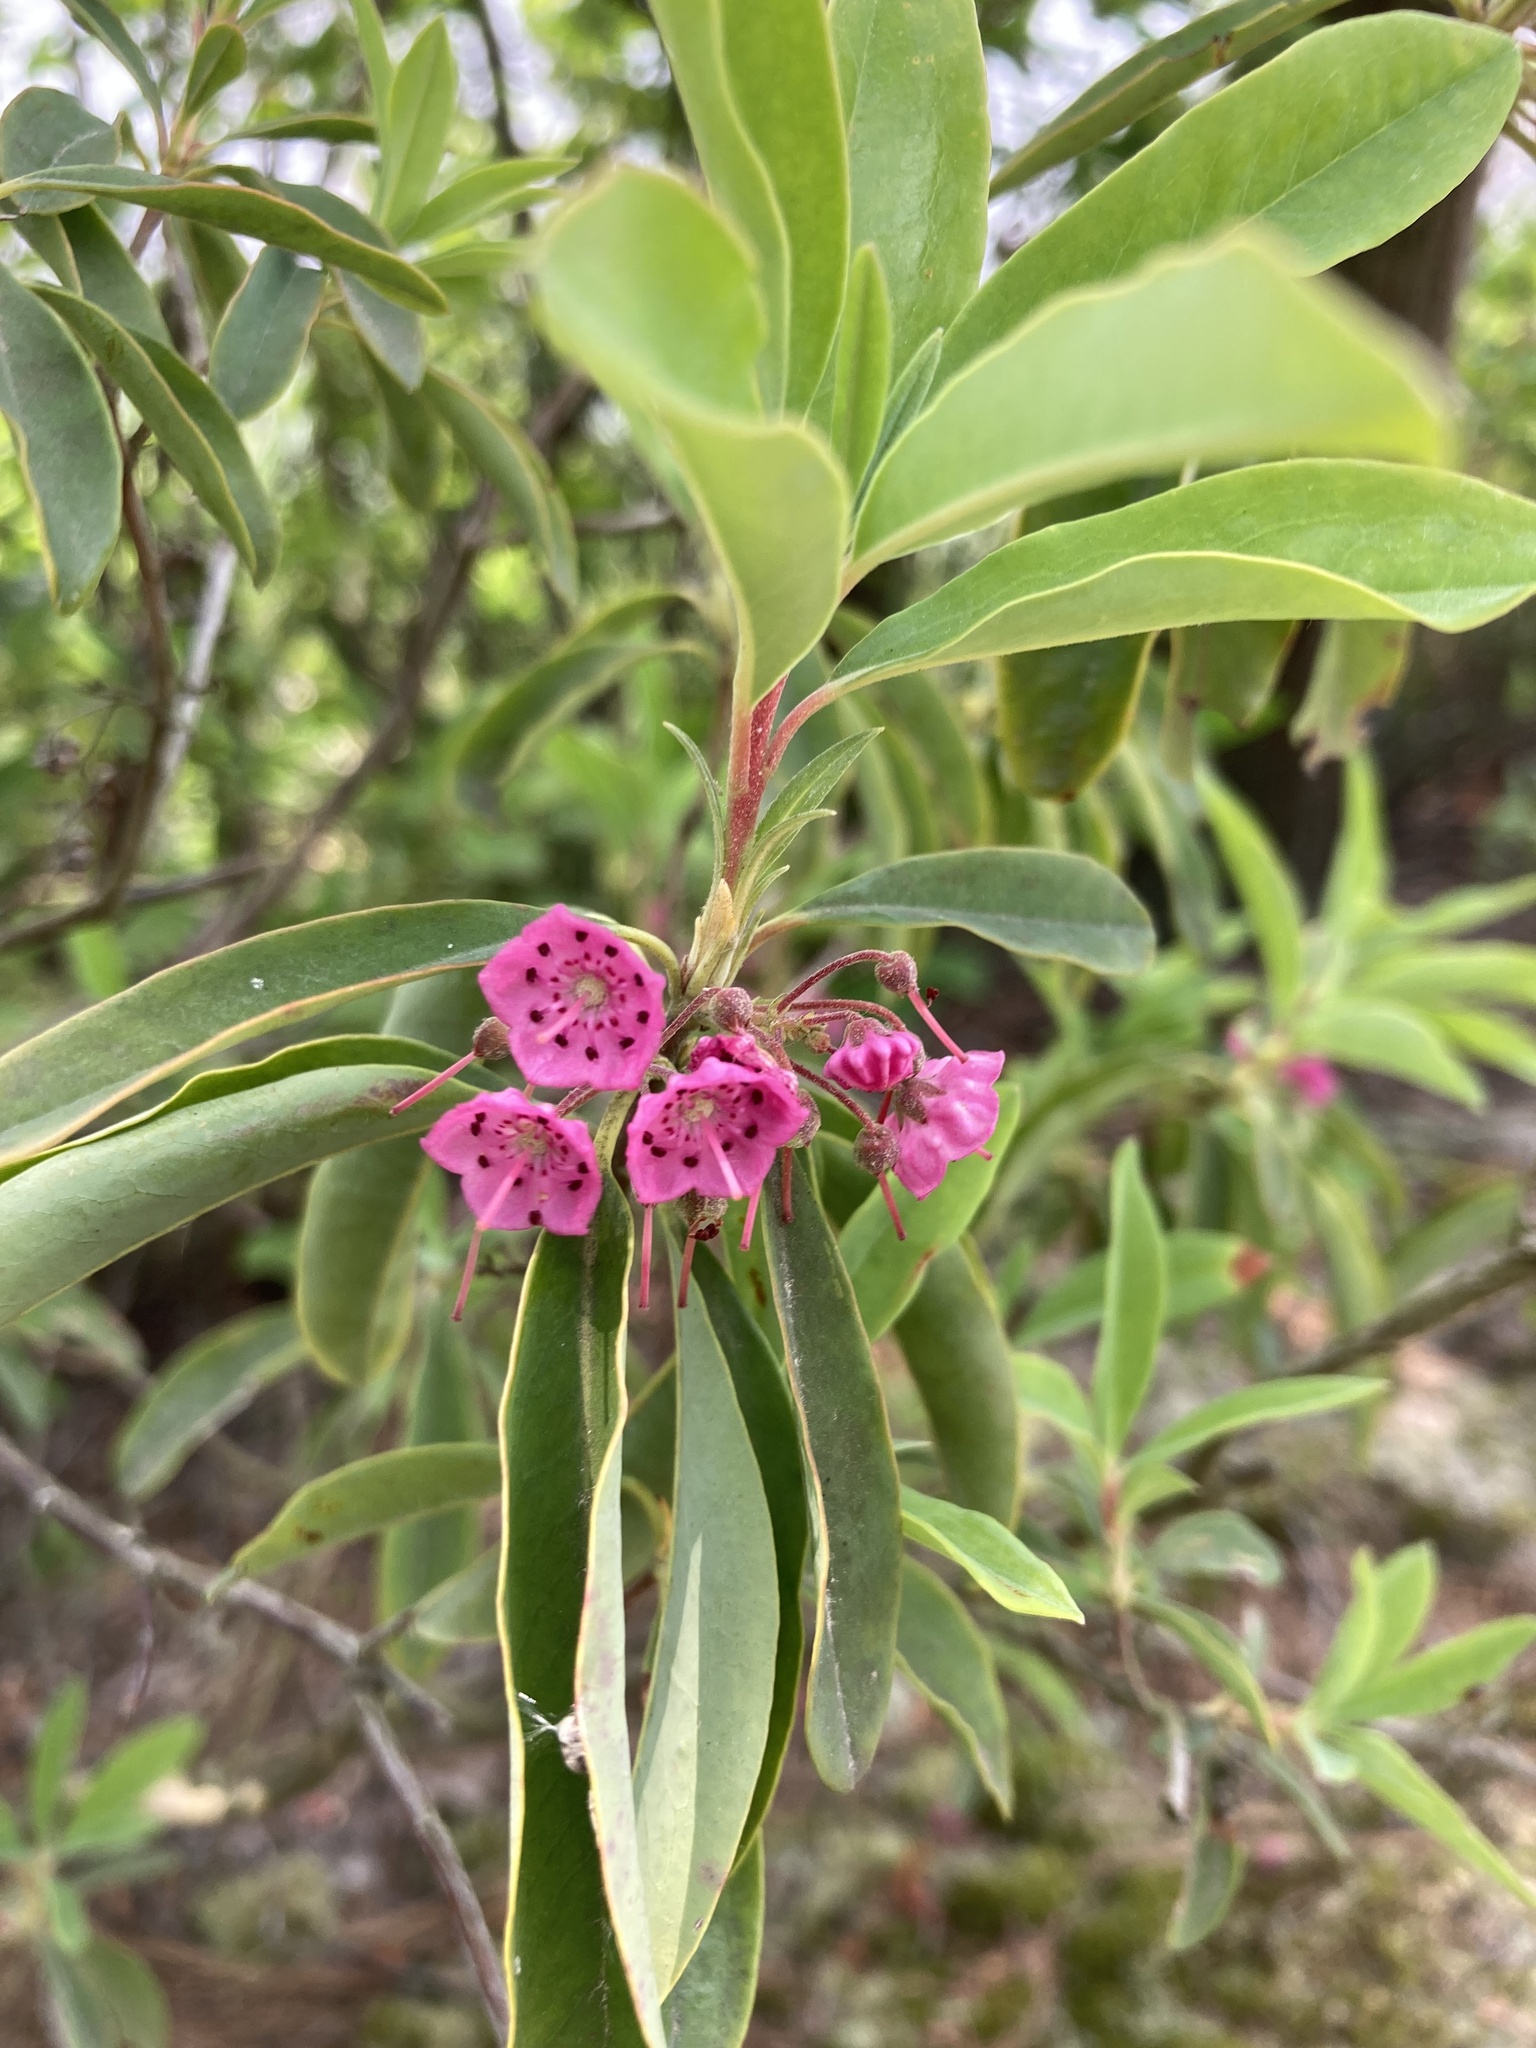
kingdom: Plantae
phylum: Tracheophyta
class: Magnoliopsida
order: Ericales
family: Ericaceae
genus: Kalmia
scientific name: Kalmia angustifolia
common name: Sheep-laurel
